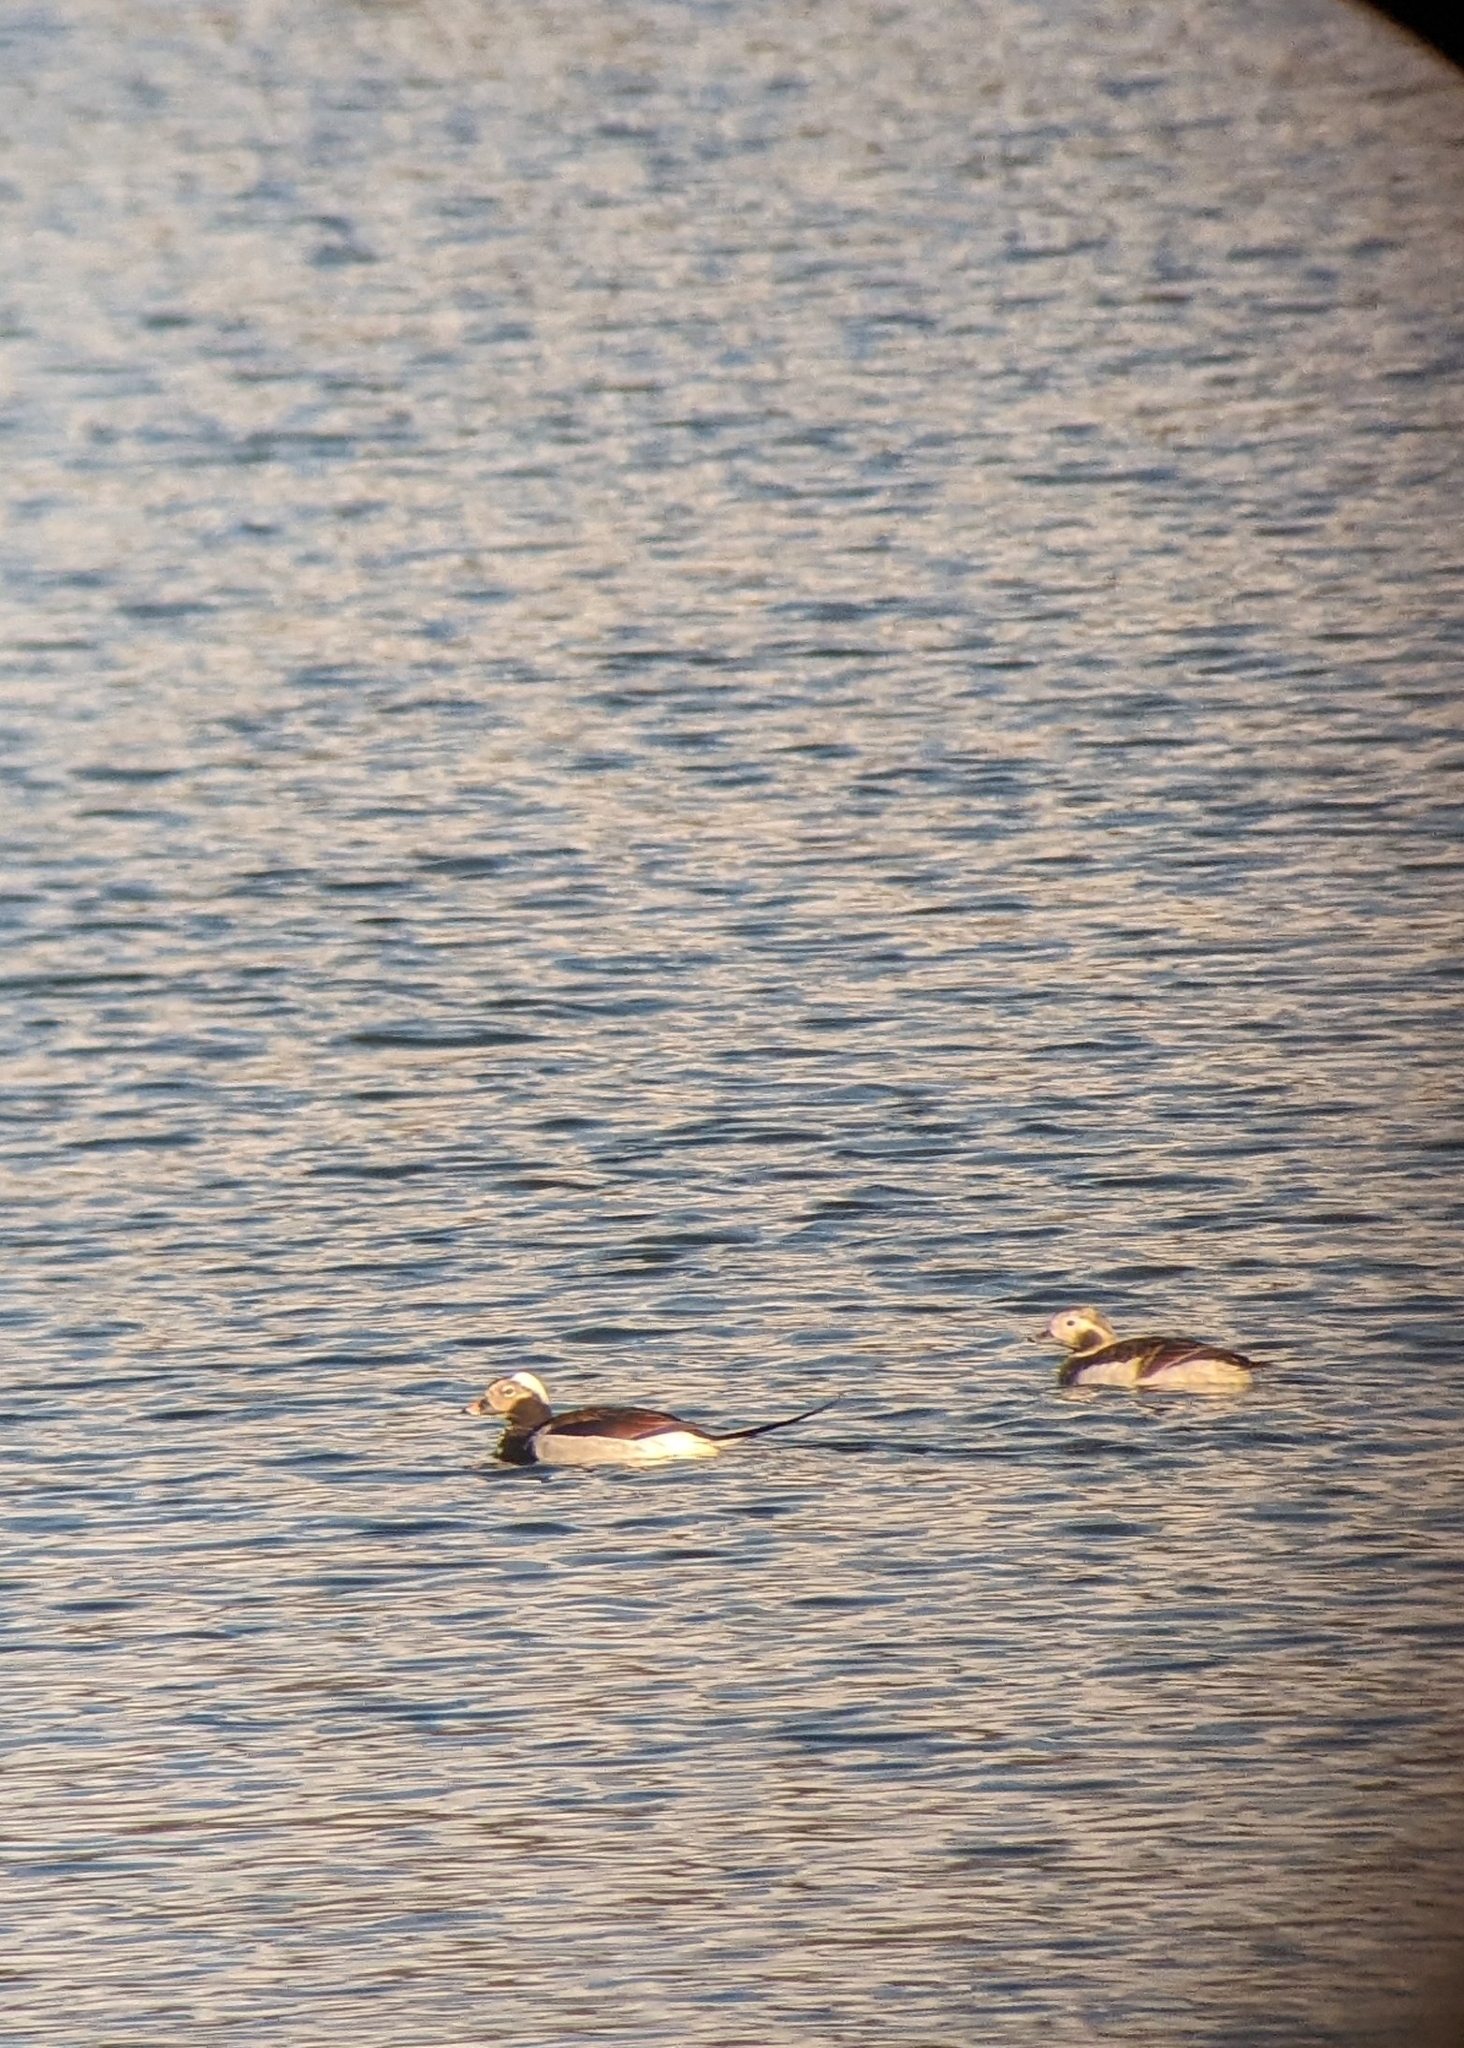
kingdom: Animalia
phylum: Chordata
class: Aves
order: Anseriformes
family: Anatidae
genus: Clangula
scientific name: Clangula hyemalis
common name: Long-tailed duck
